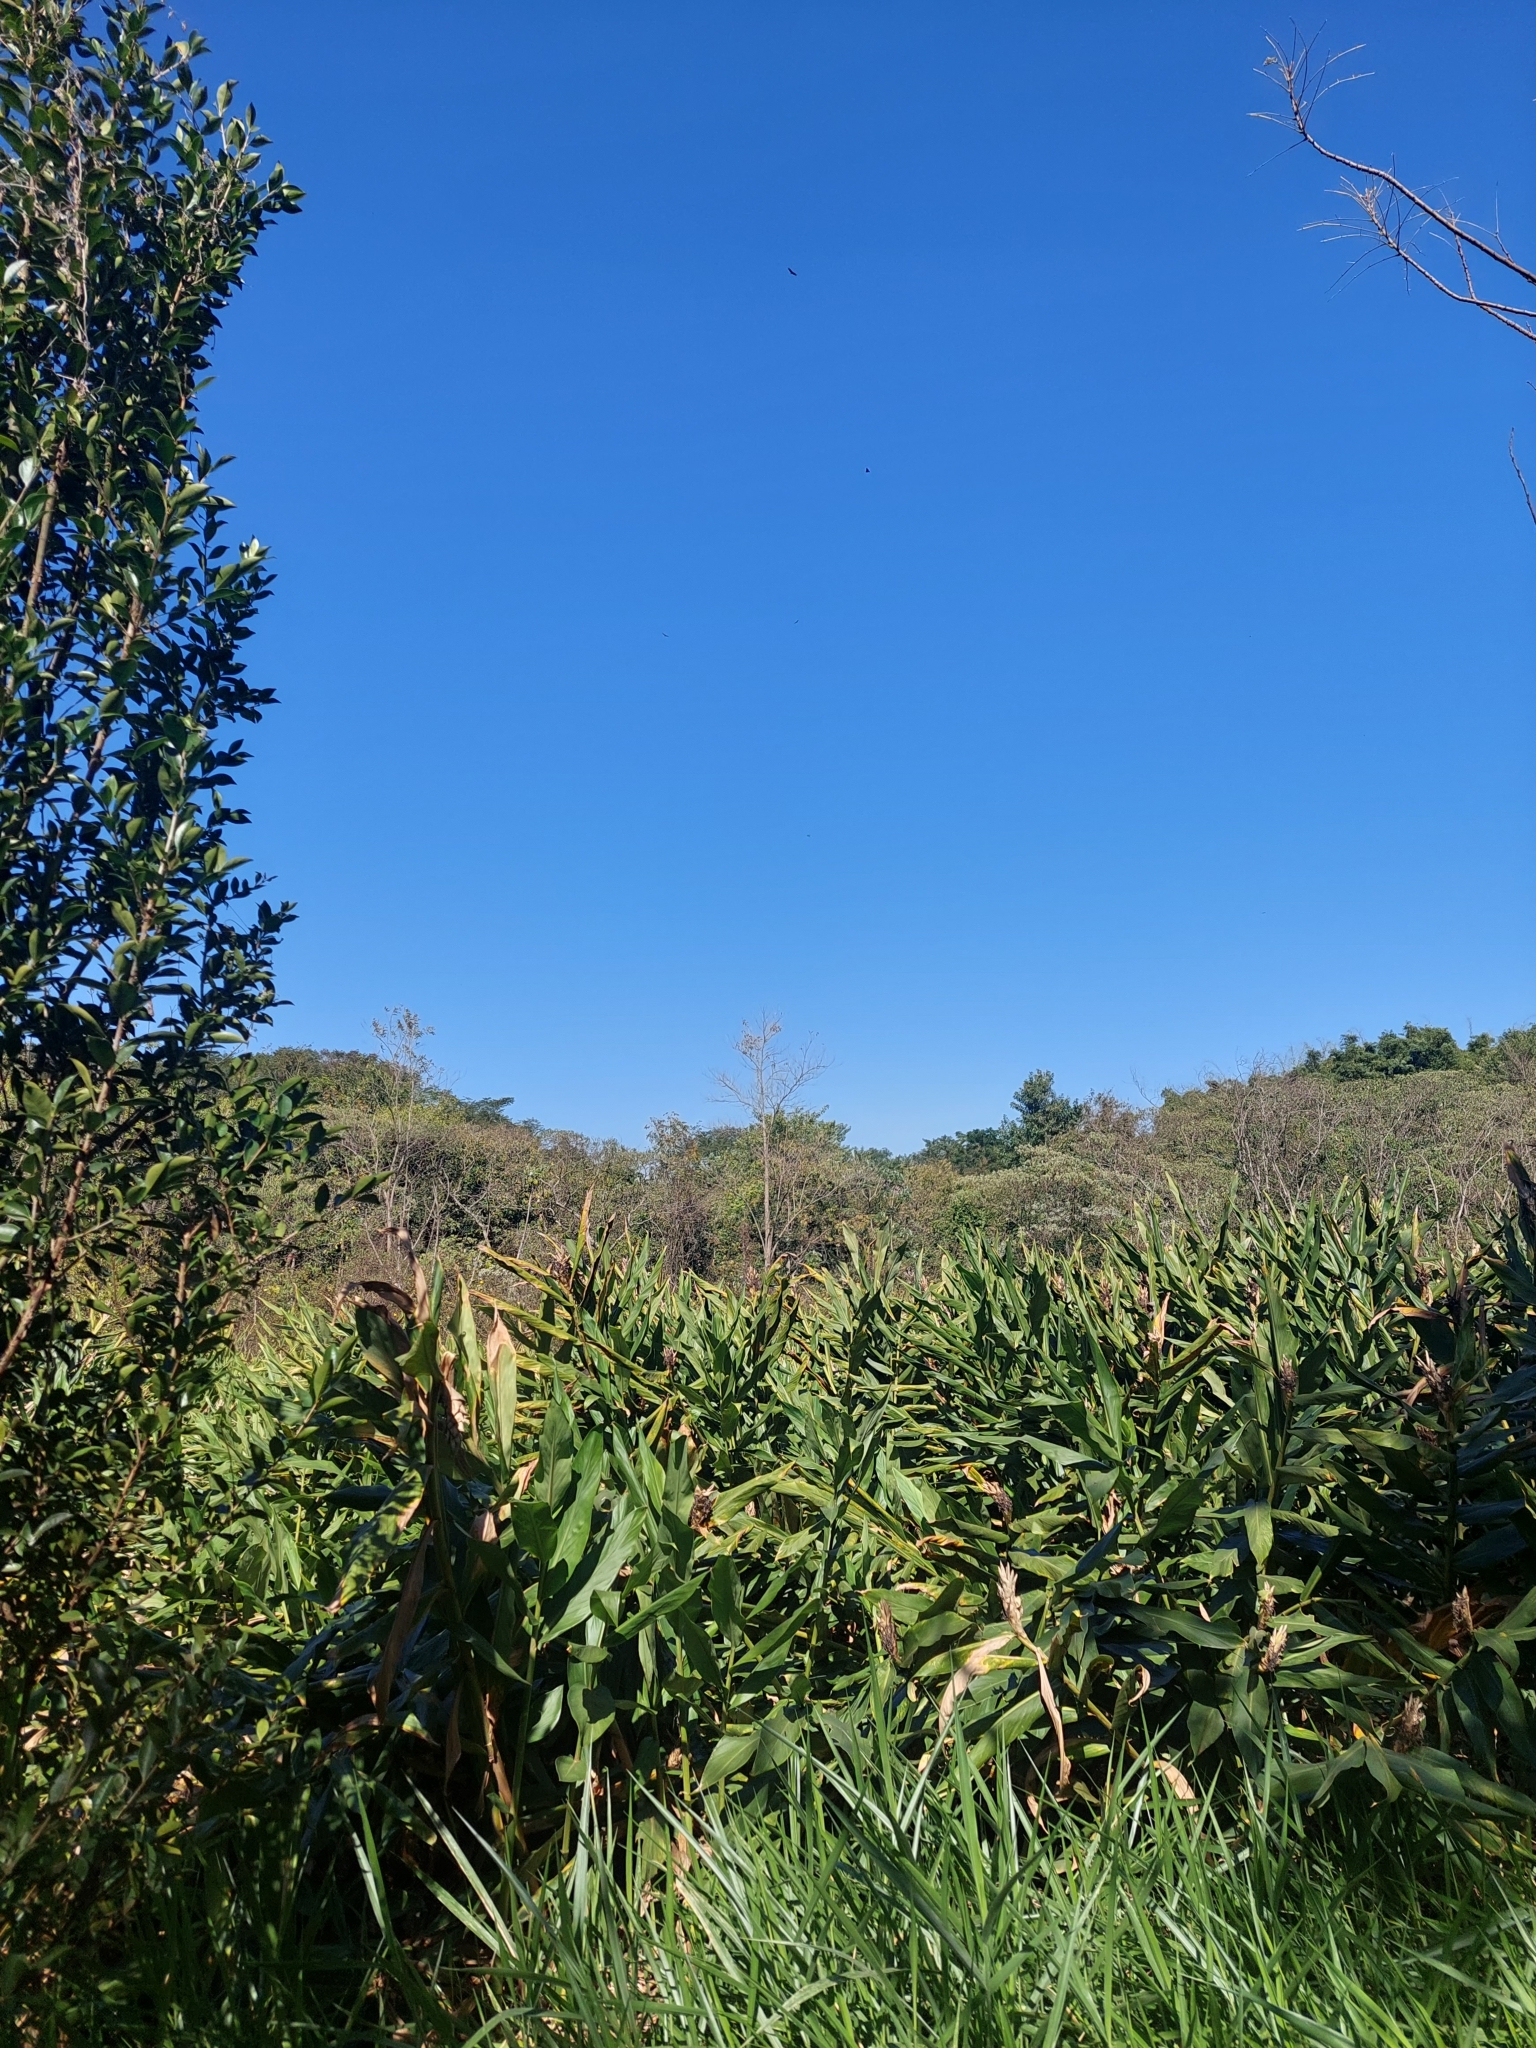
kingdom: Plantae
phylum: Tracheophyta
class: Liliopsida
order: Zingiberales
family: Zingiberaceae
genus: Hedychium
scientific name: Hedychium coronarium
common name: White garland-lily
